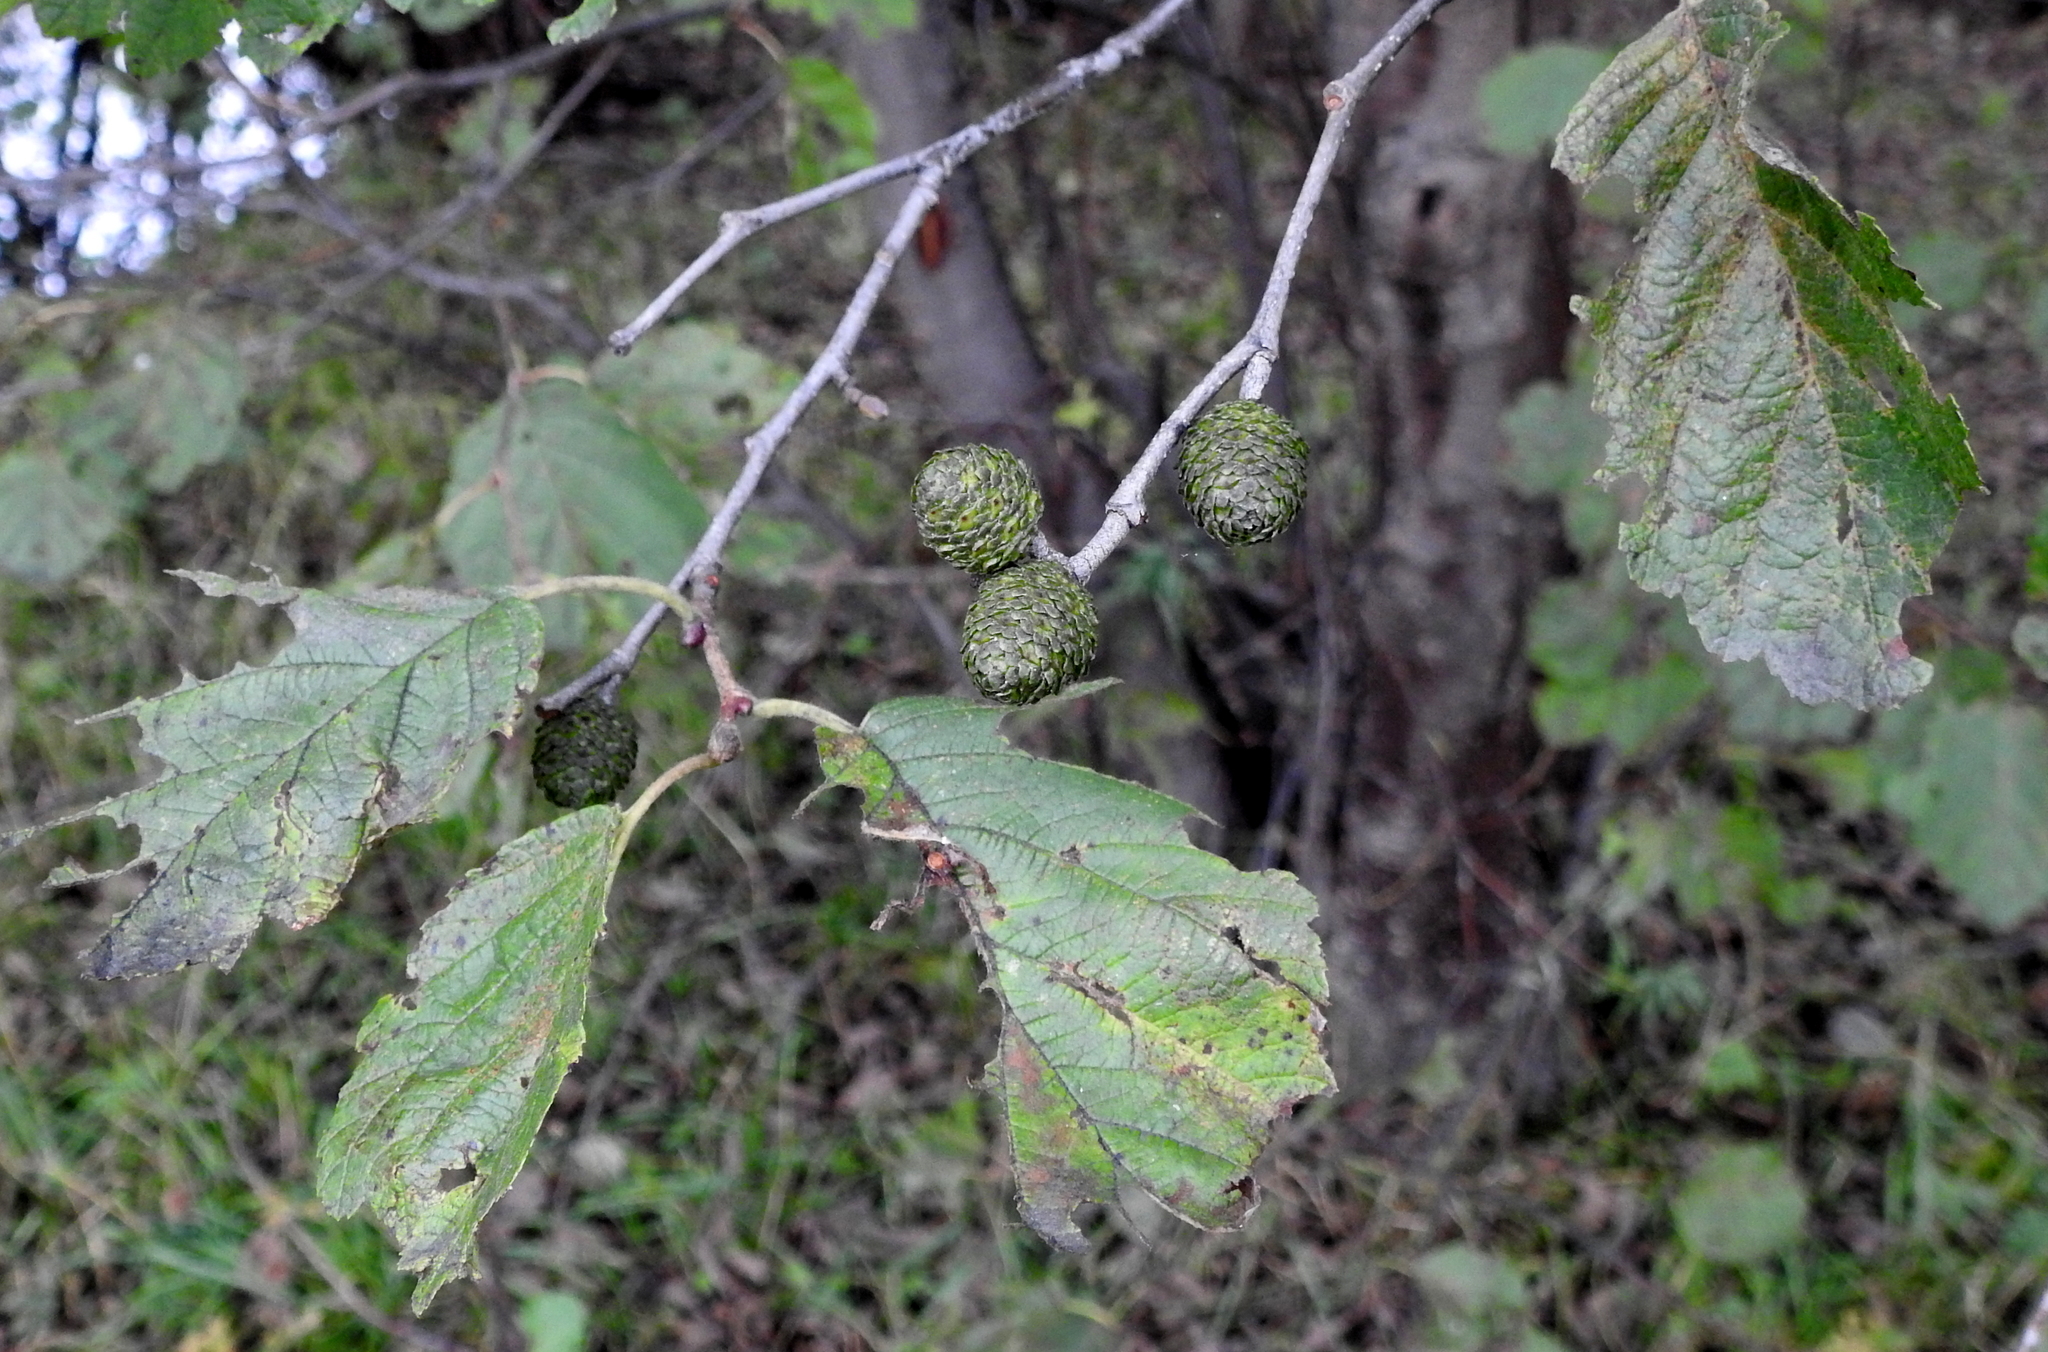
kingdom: Plantae
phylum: Tracheophyta
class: Magnoliopsida
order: Fagales
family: Betulaceae
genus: Alnus
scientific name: Alnus hirsuta
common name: Manchurian alder
